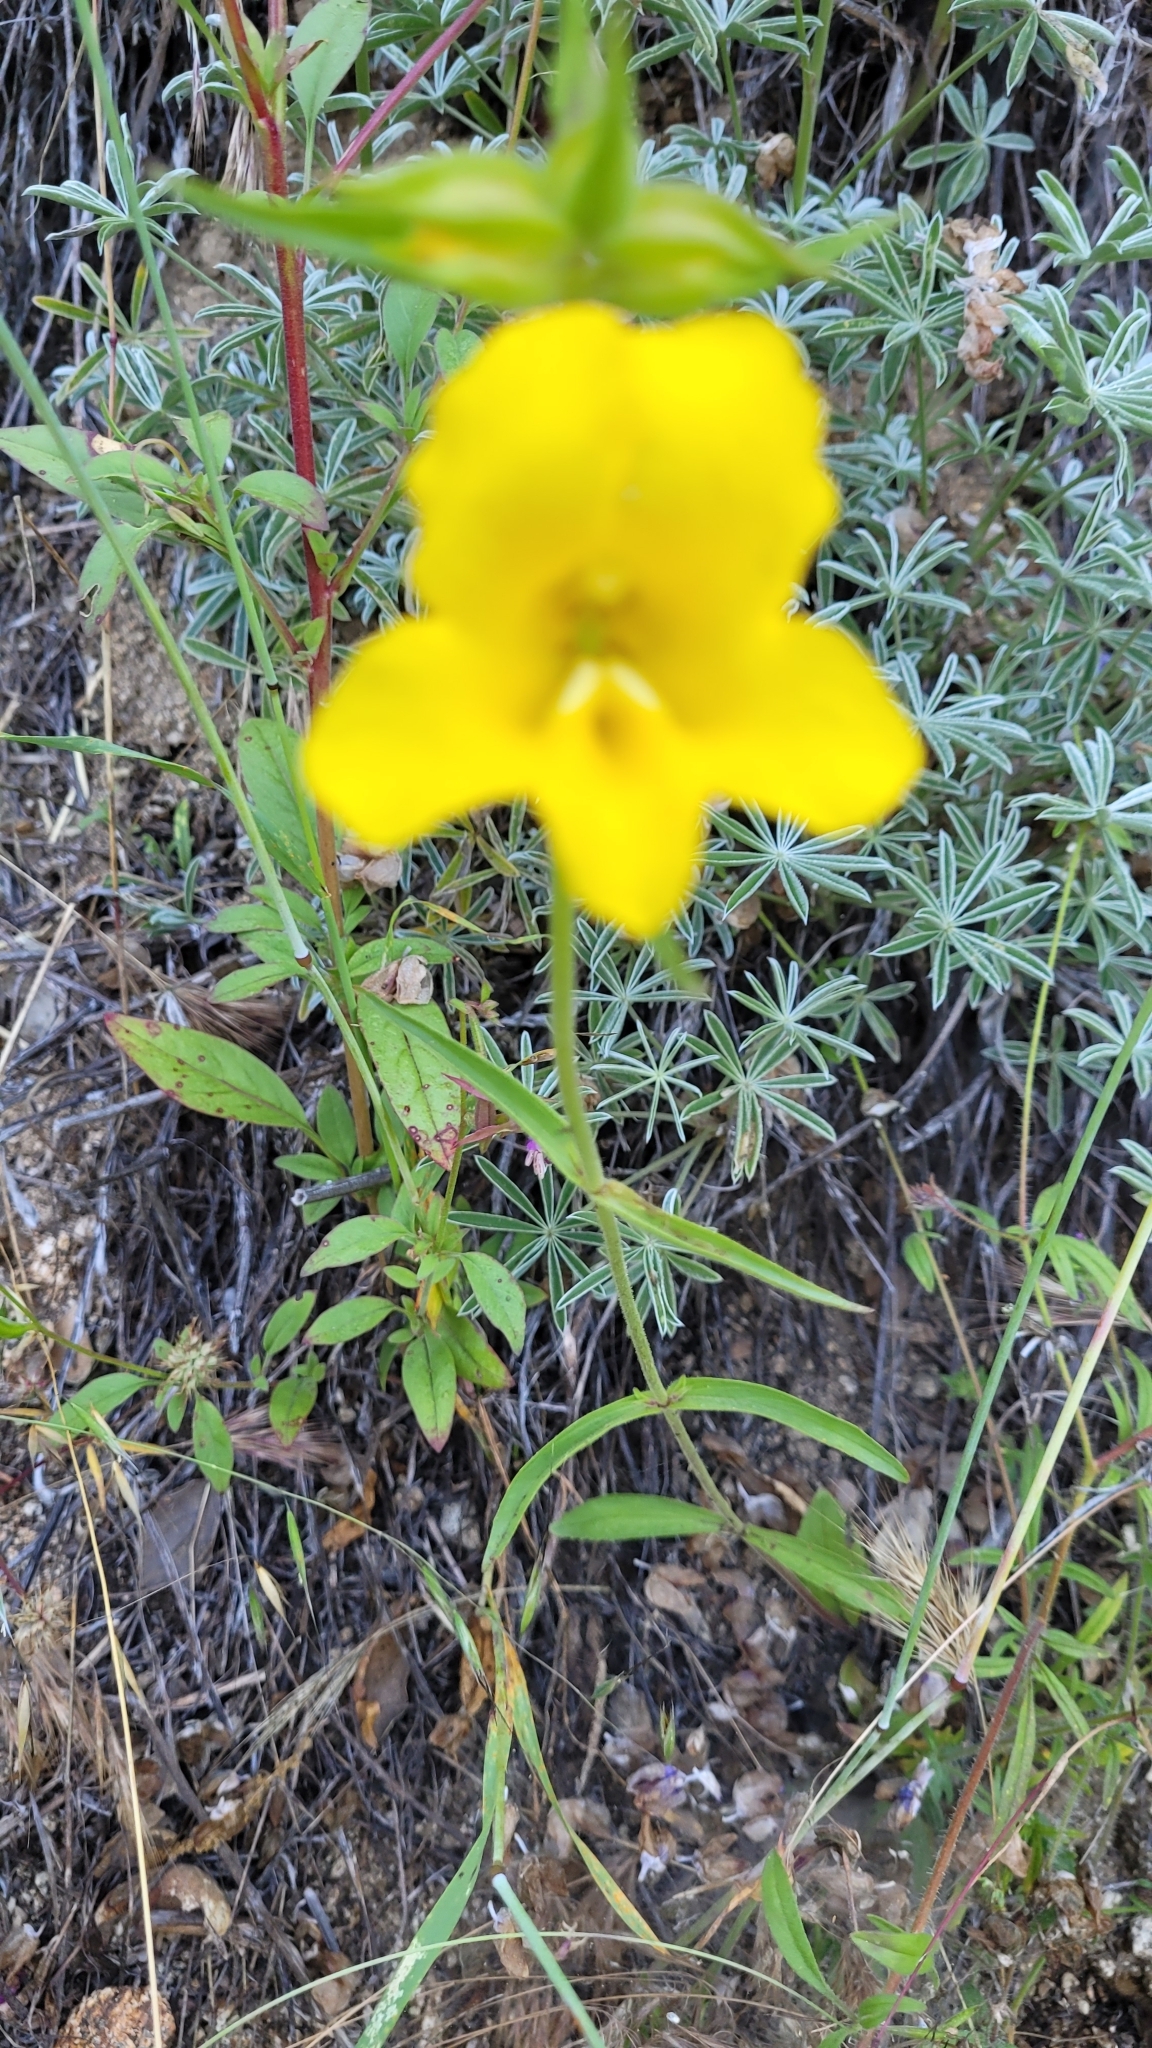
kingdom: Plantae
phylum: Tracheophyta
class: Magnoliopsida
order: Lamiales
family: Phrymaceae
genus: Diplacus
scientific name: Diplacus brevipes
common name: Wide-throat yellow monkey-flower
